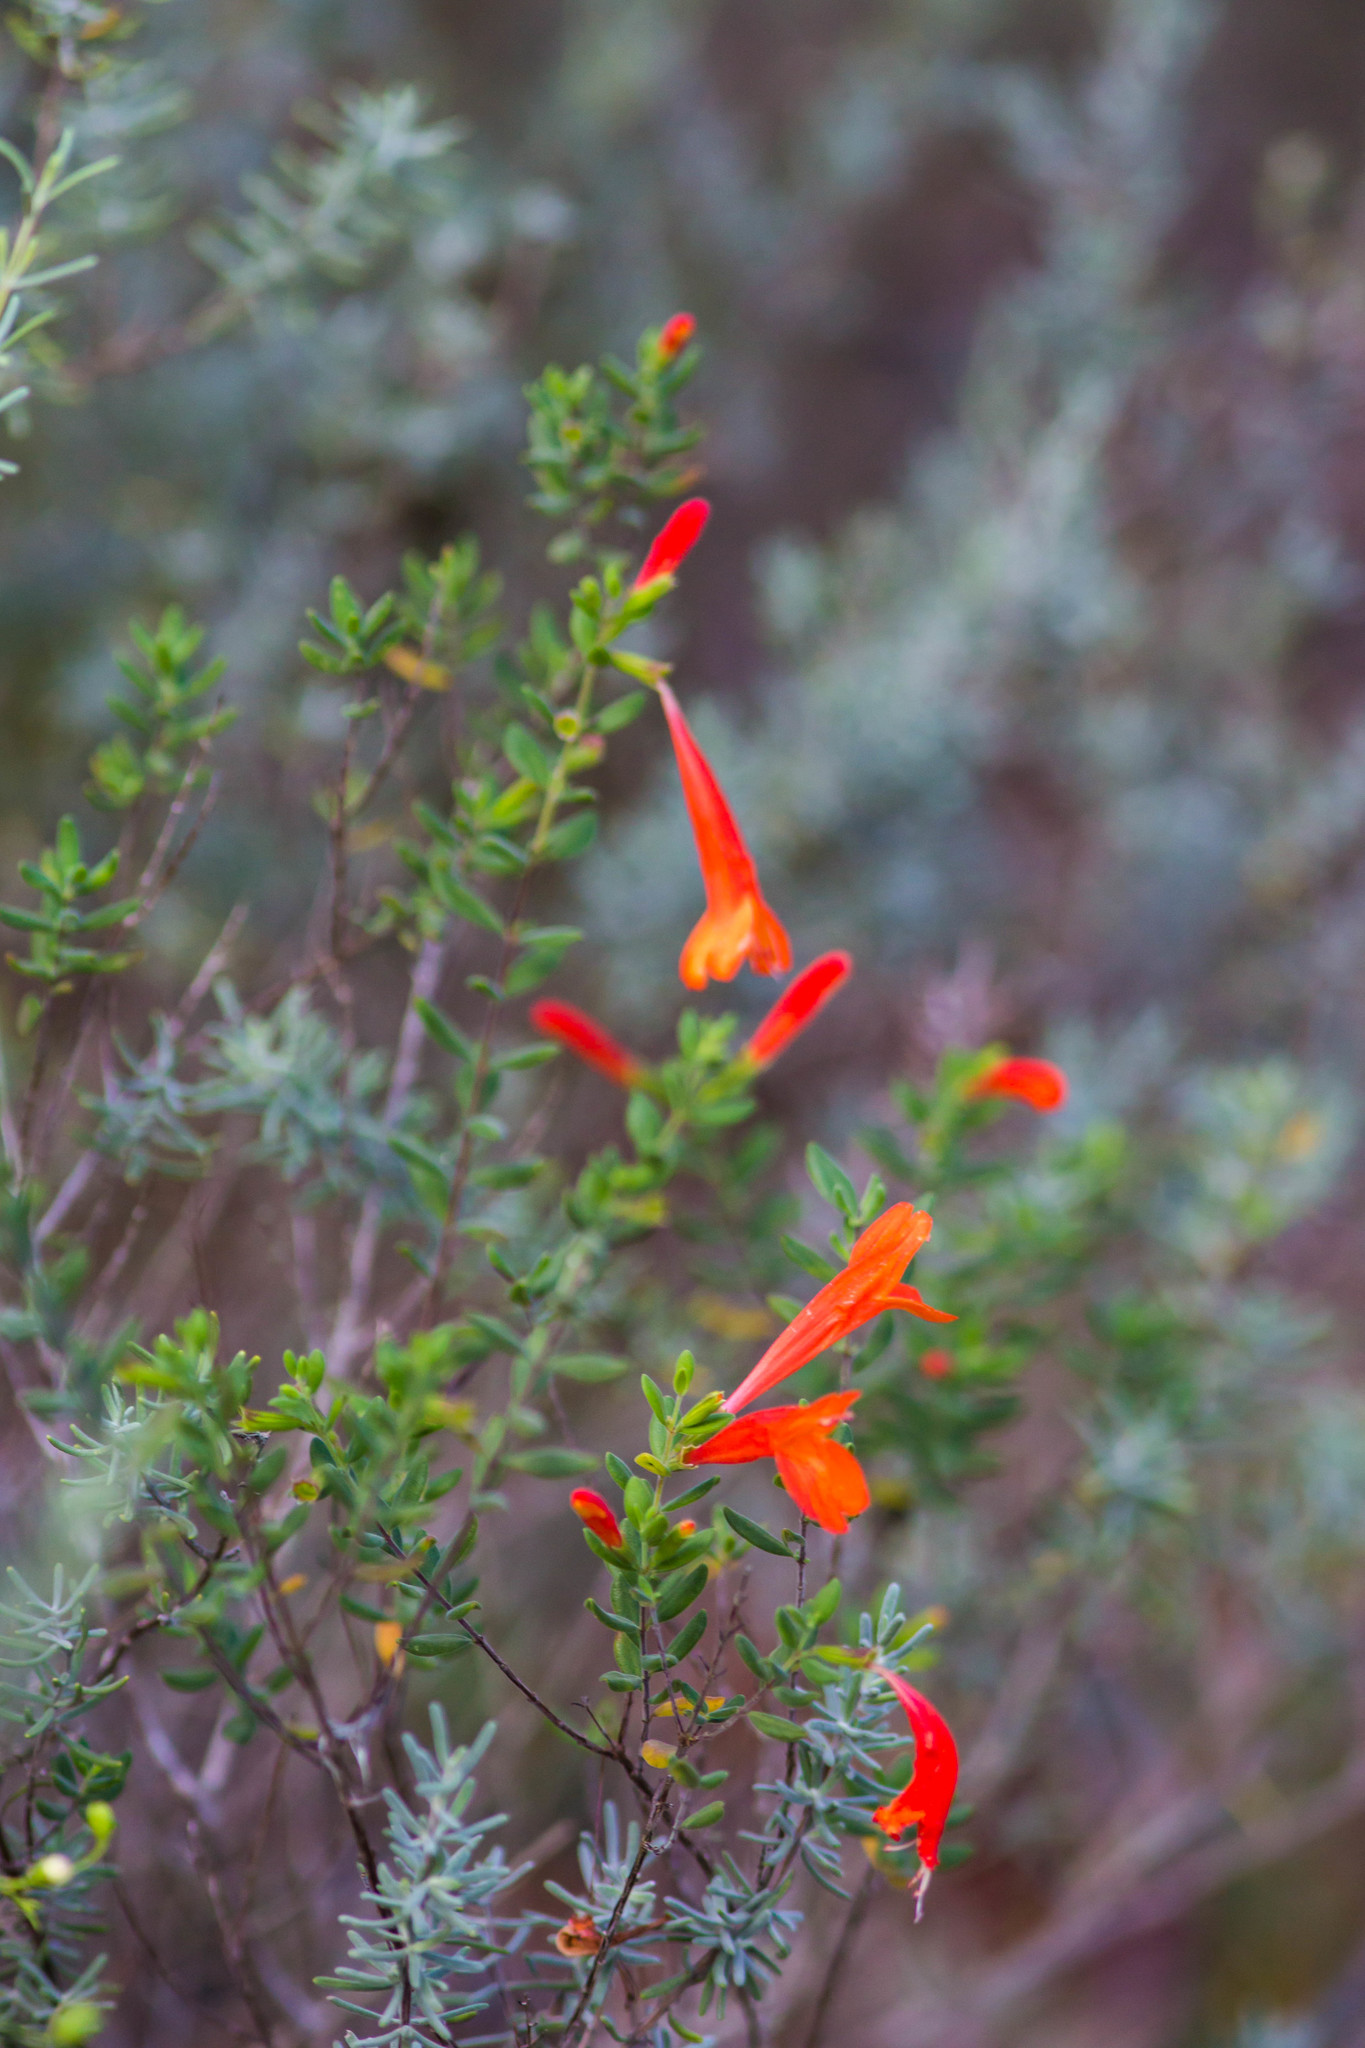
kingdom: Plantae
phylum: Tracheophyta
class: Magnoliopsida
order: Lamiales
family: Lamiaceae
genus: Clinopodium
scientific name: Clinopodium coccineum
